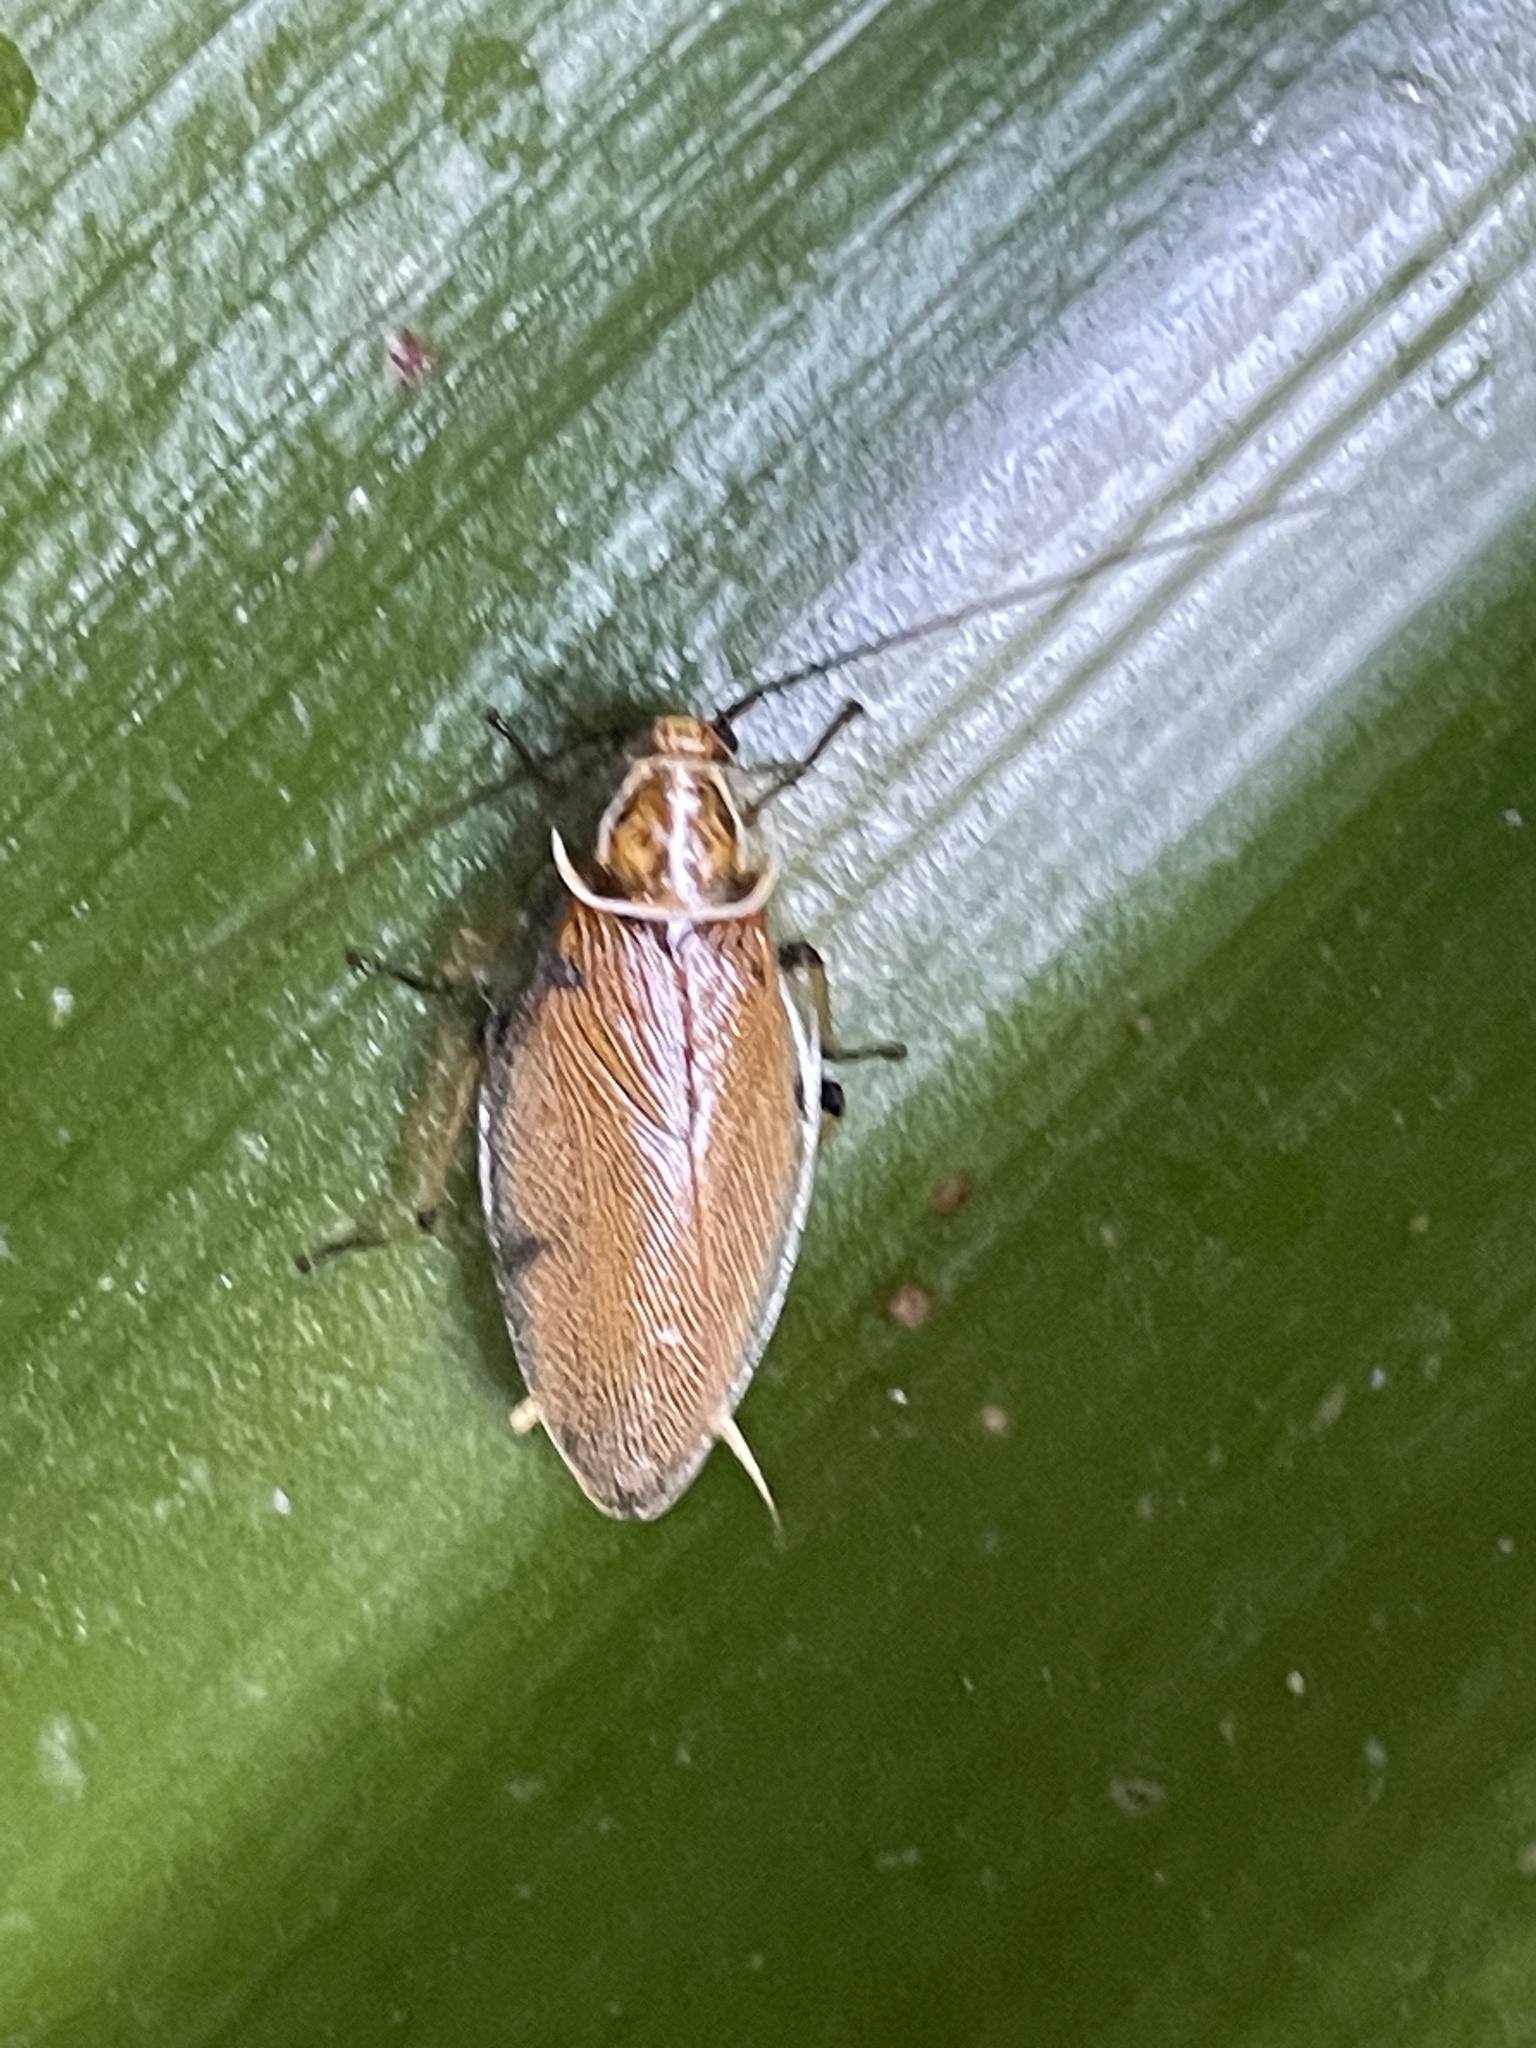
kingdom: Animalia
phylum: Arthropoda
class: Insecta
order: Blattodea
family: Ectobiidae
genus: Balta
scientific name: Balta bicolor
